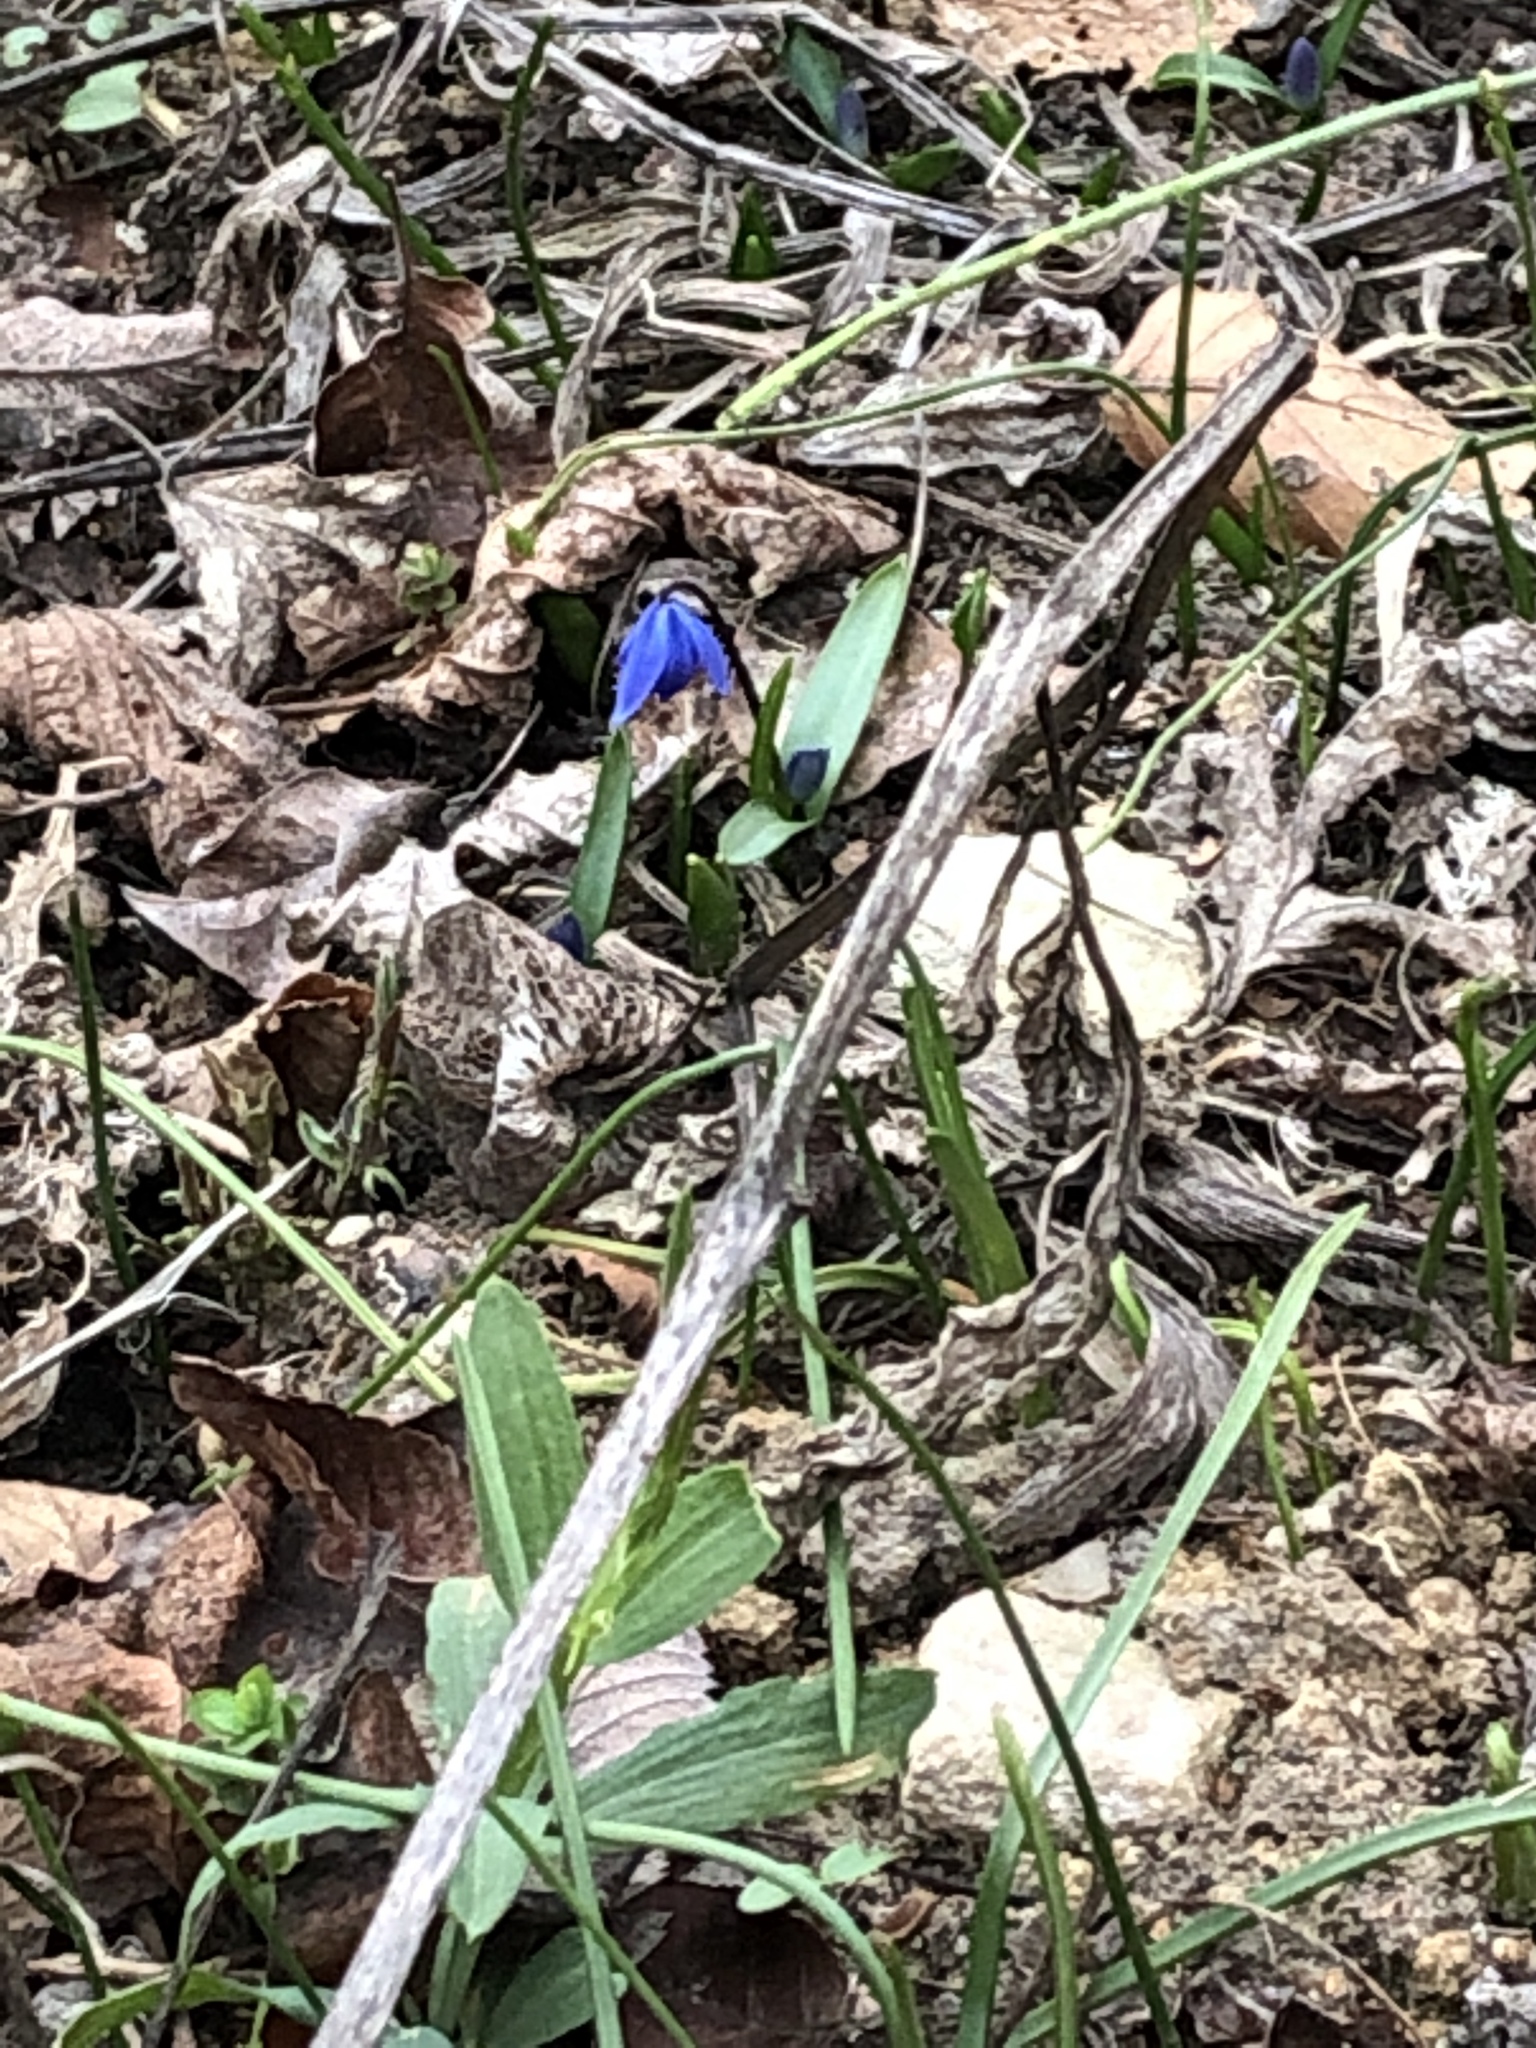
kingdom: Plantae
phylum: Tracheophyta
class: Liliopsida
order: Asparagales
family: Asparagaceae
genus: Scilla
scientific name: Scilla siberica
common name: Siberian squill
